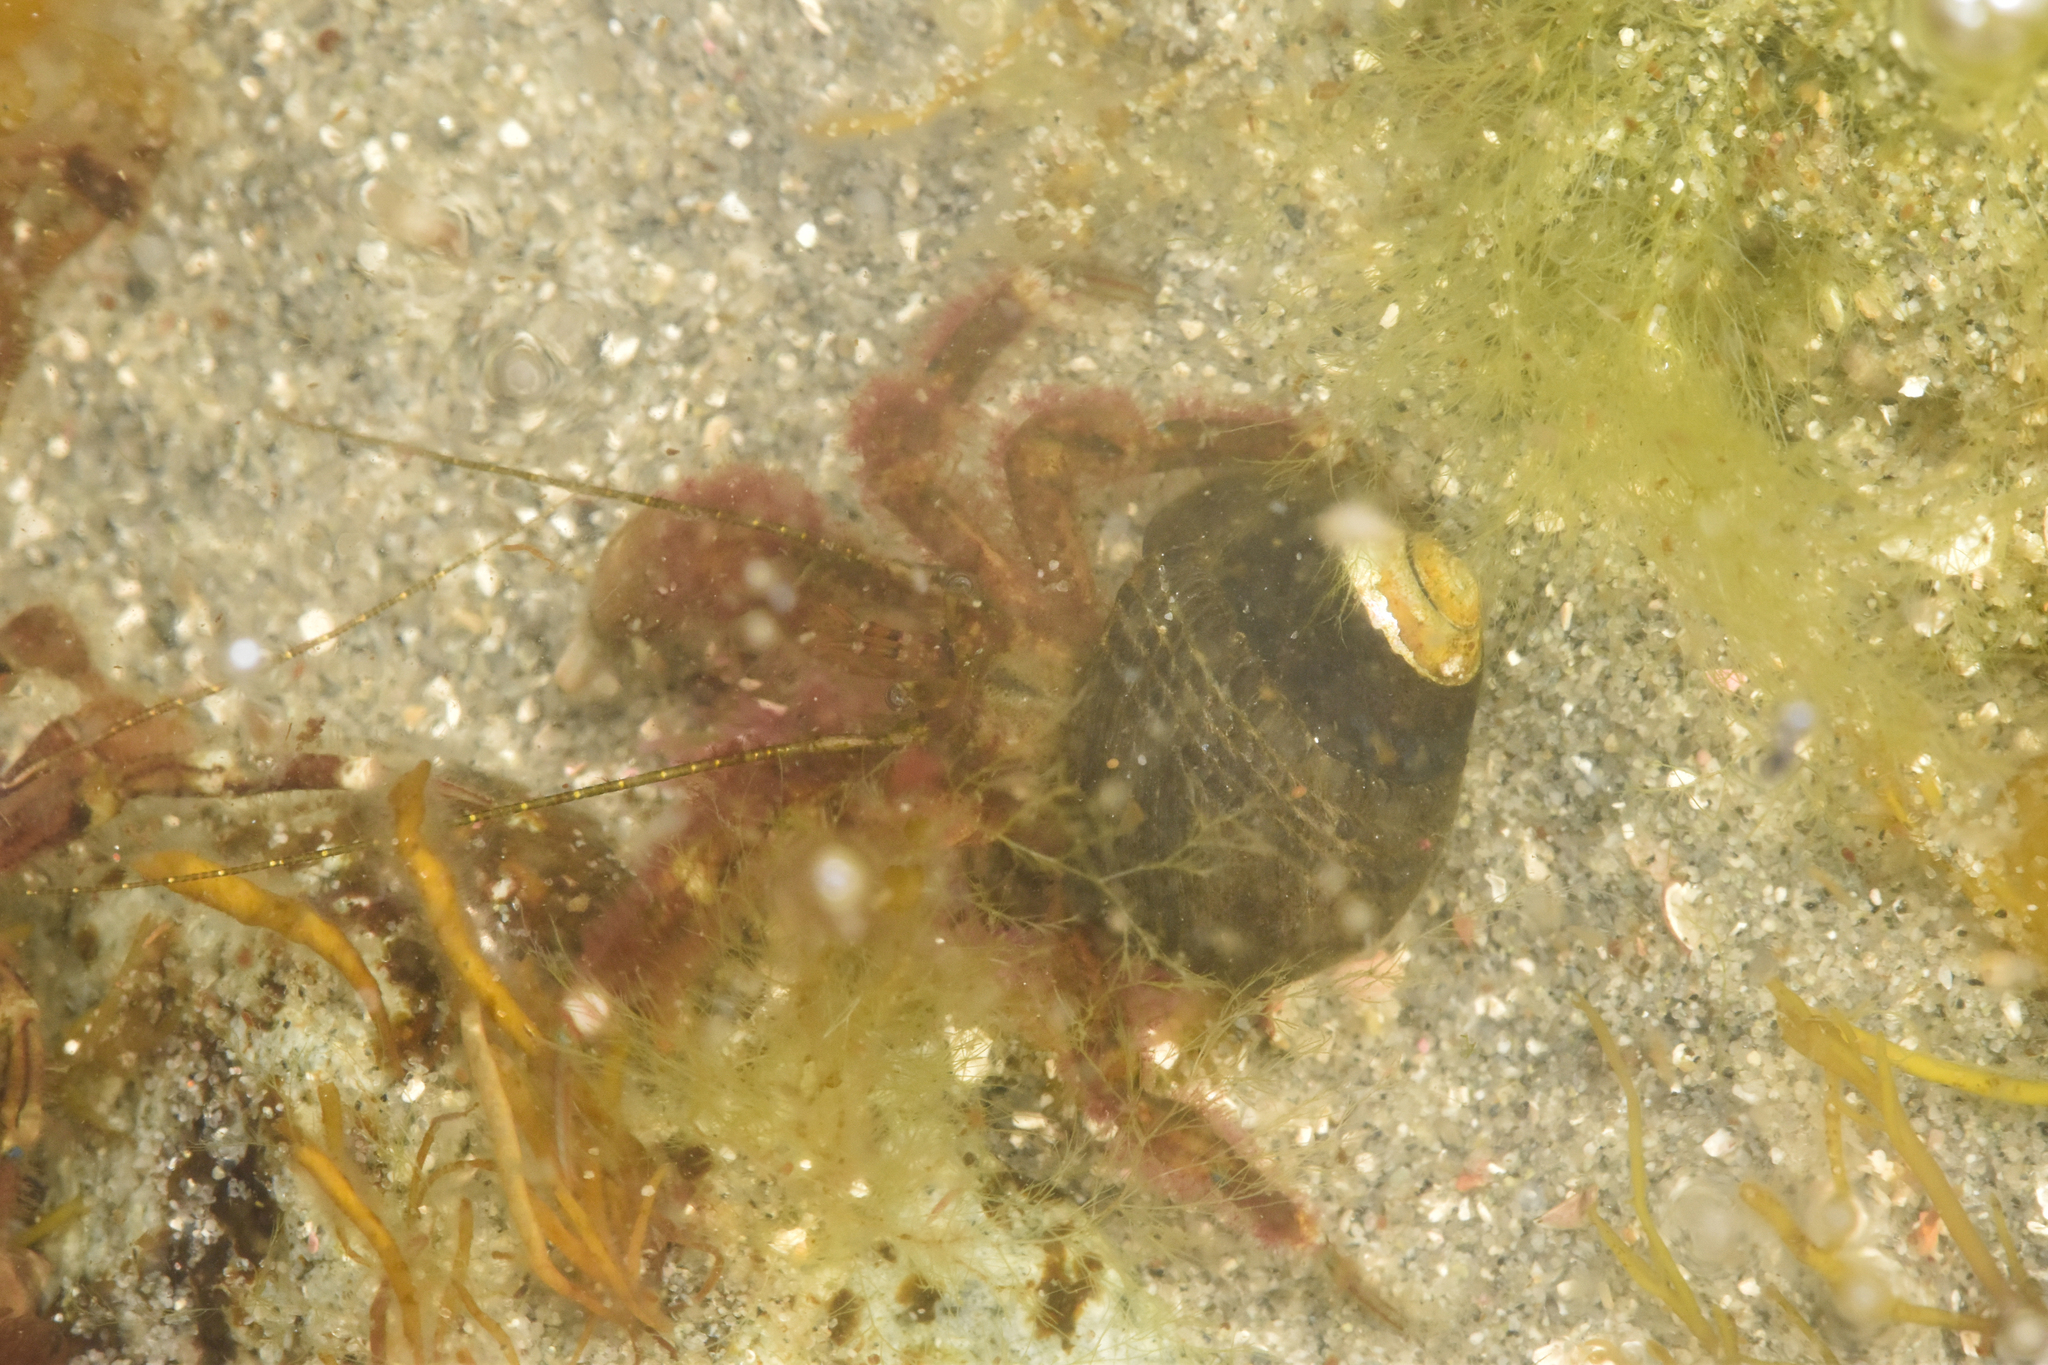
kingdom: Animalia
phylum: Arthropoda
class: Malacostraca
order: Decapoda
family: Paguridae
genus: Pagurus
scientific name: Pagurus hirsutiusculus
